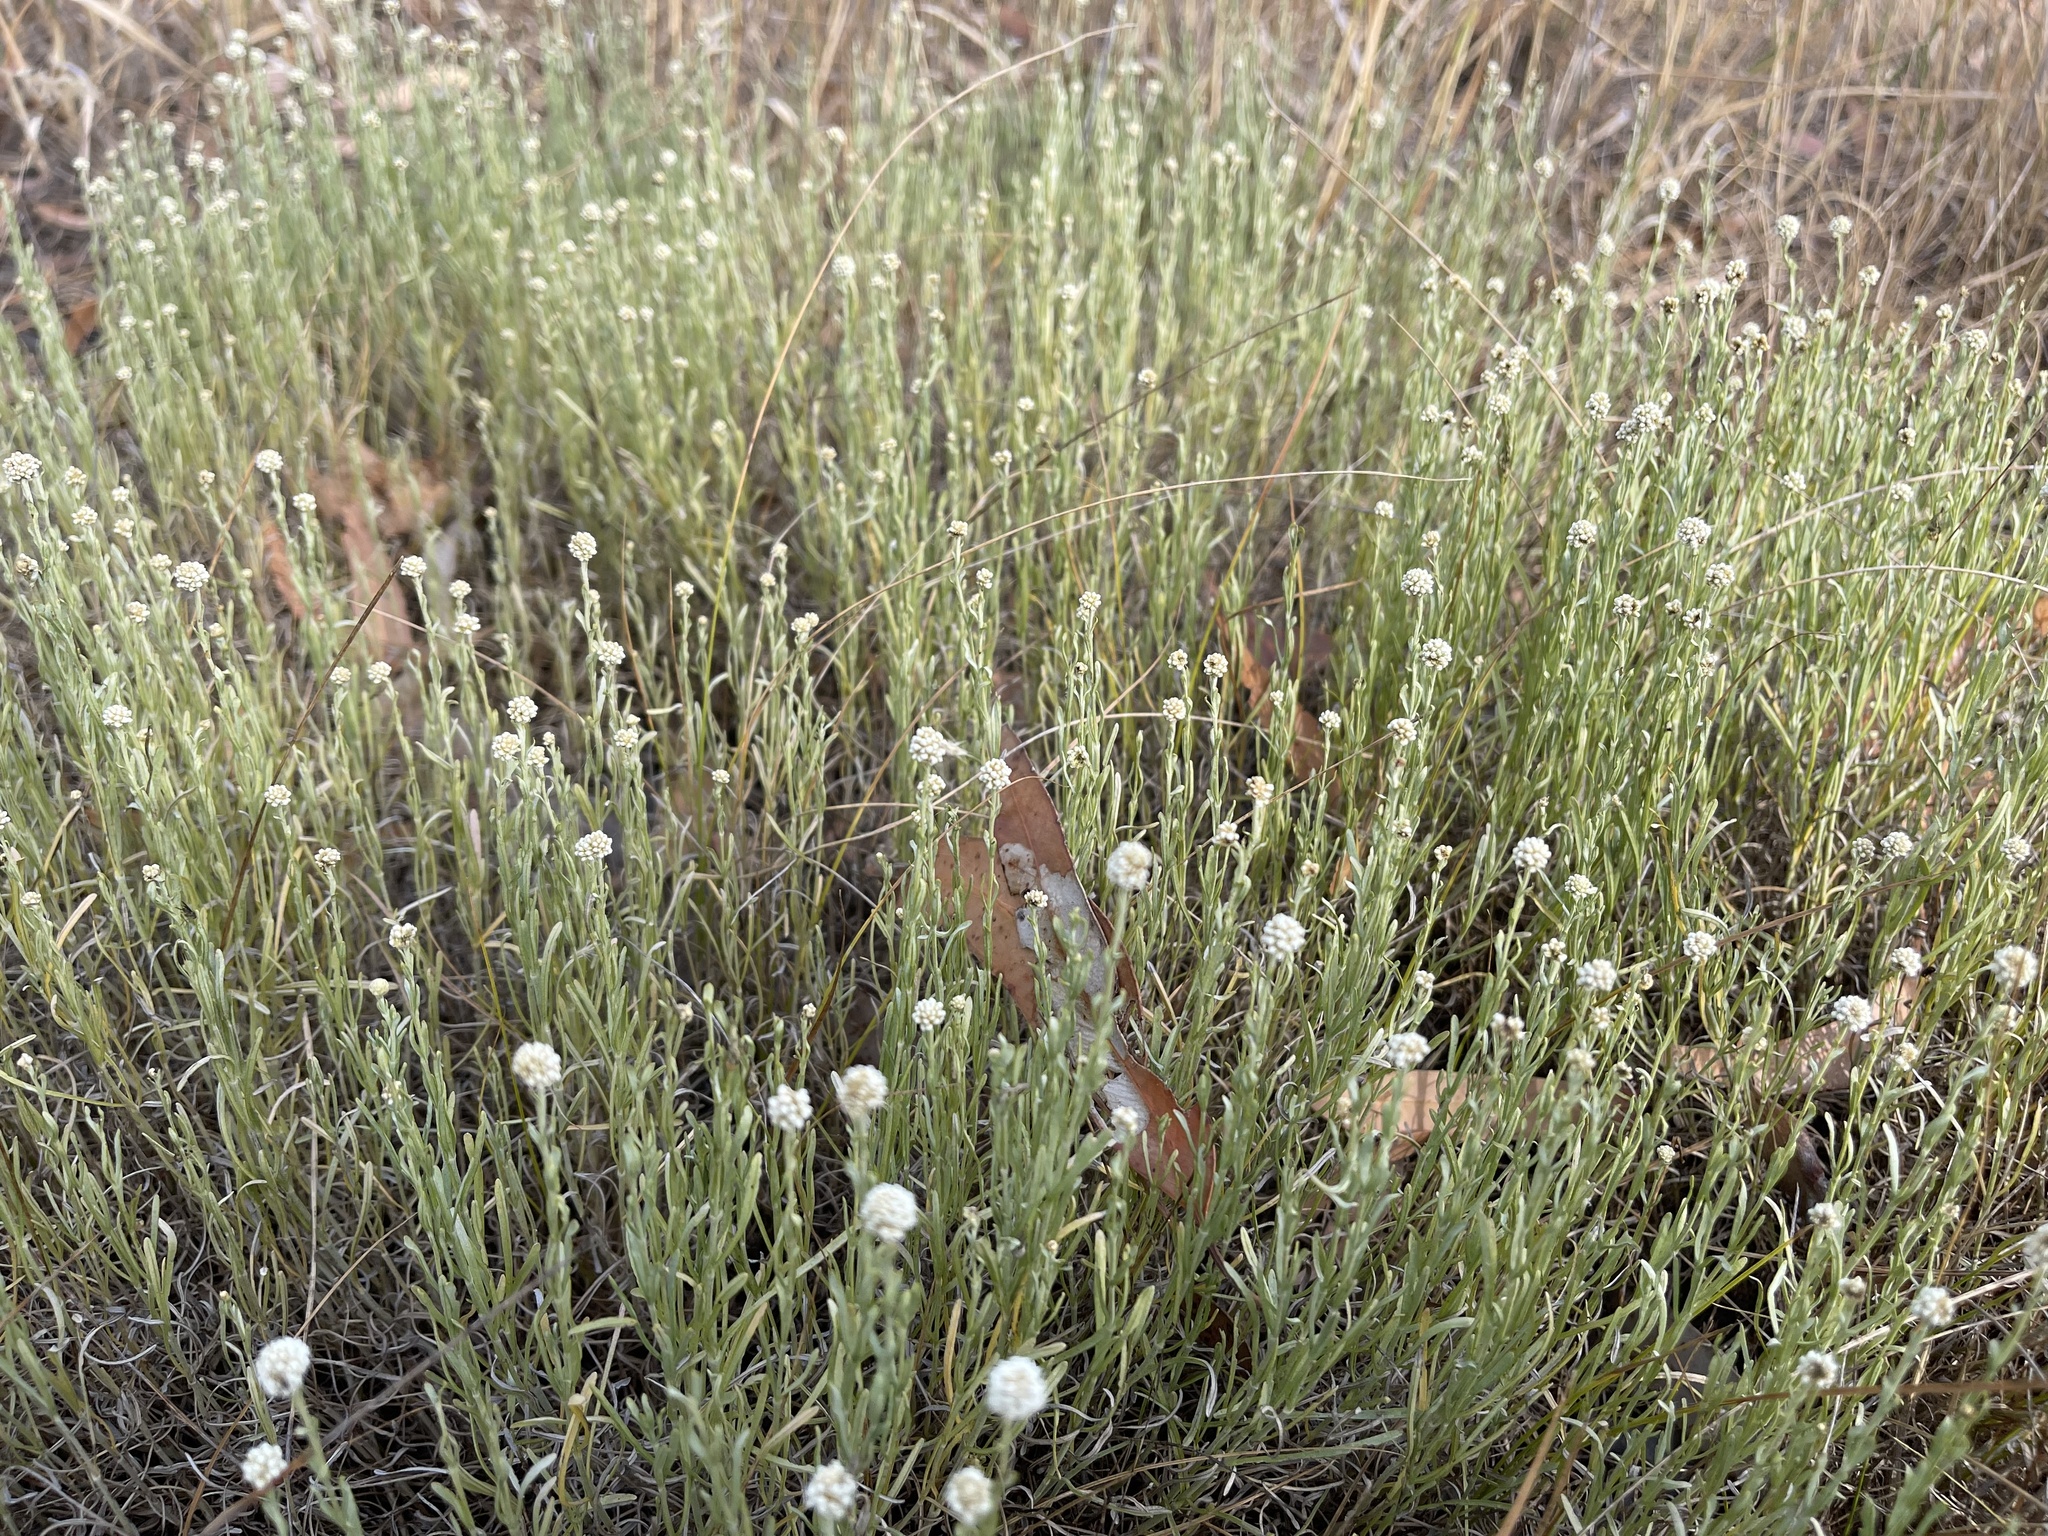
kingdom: Plantae
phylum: Tracheophyta
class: Magnoliopsida
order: Asterales
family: Asteraceae
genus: Calocephalus
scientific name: Calocephalus lacteus
